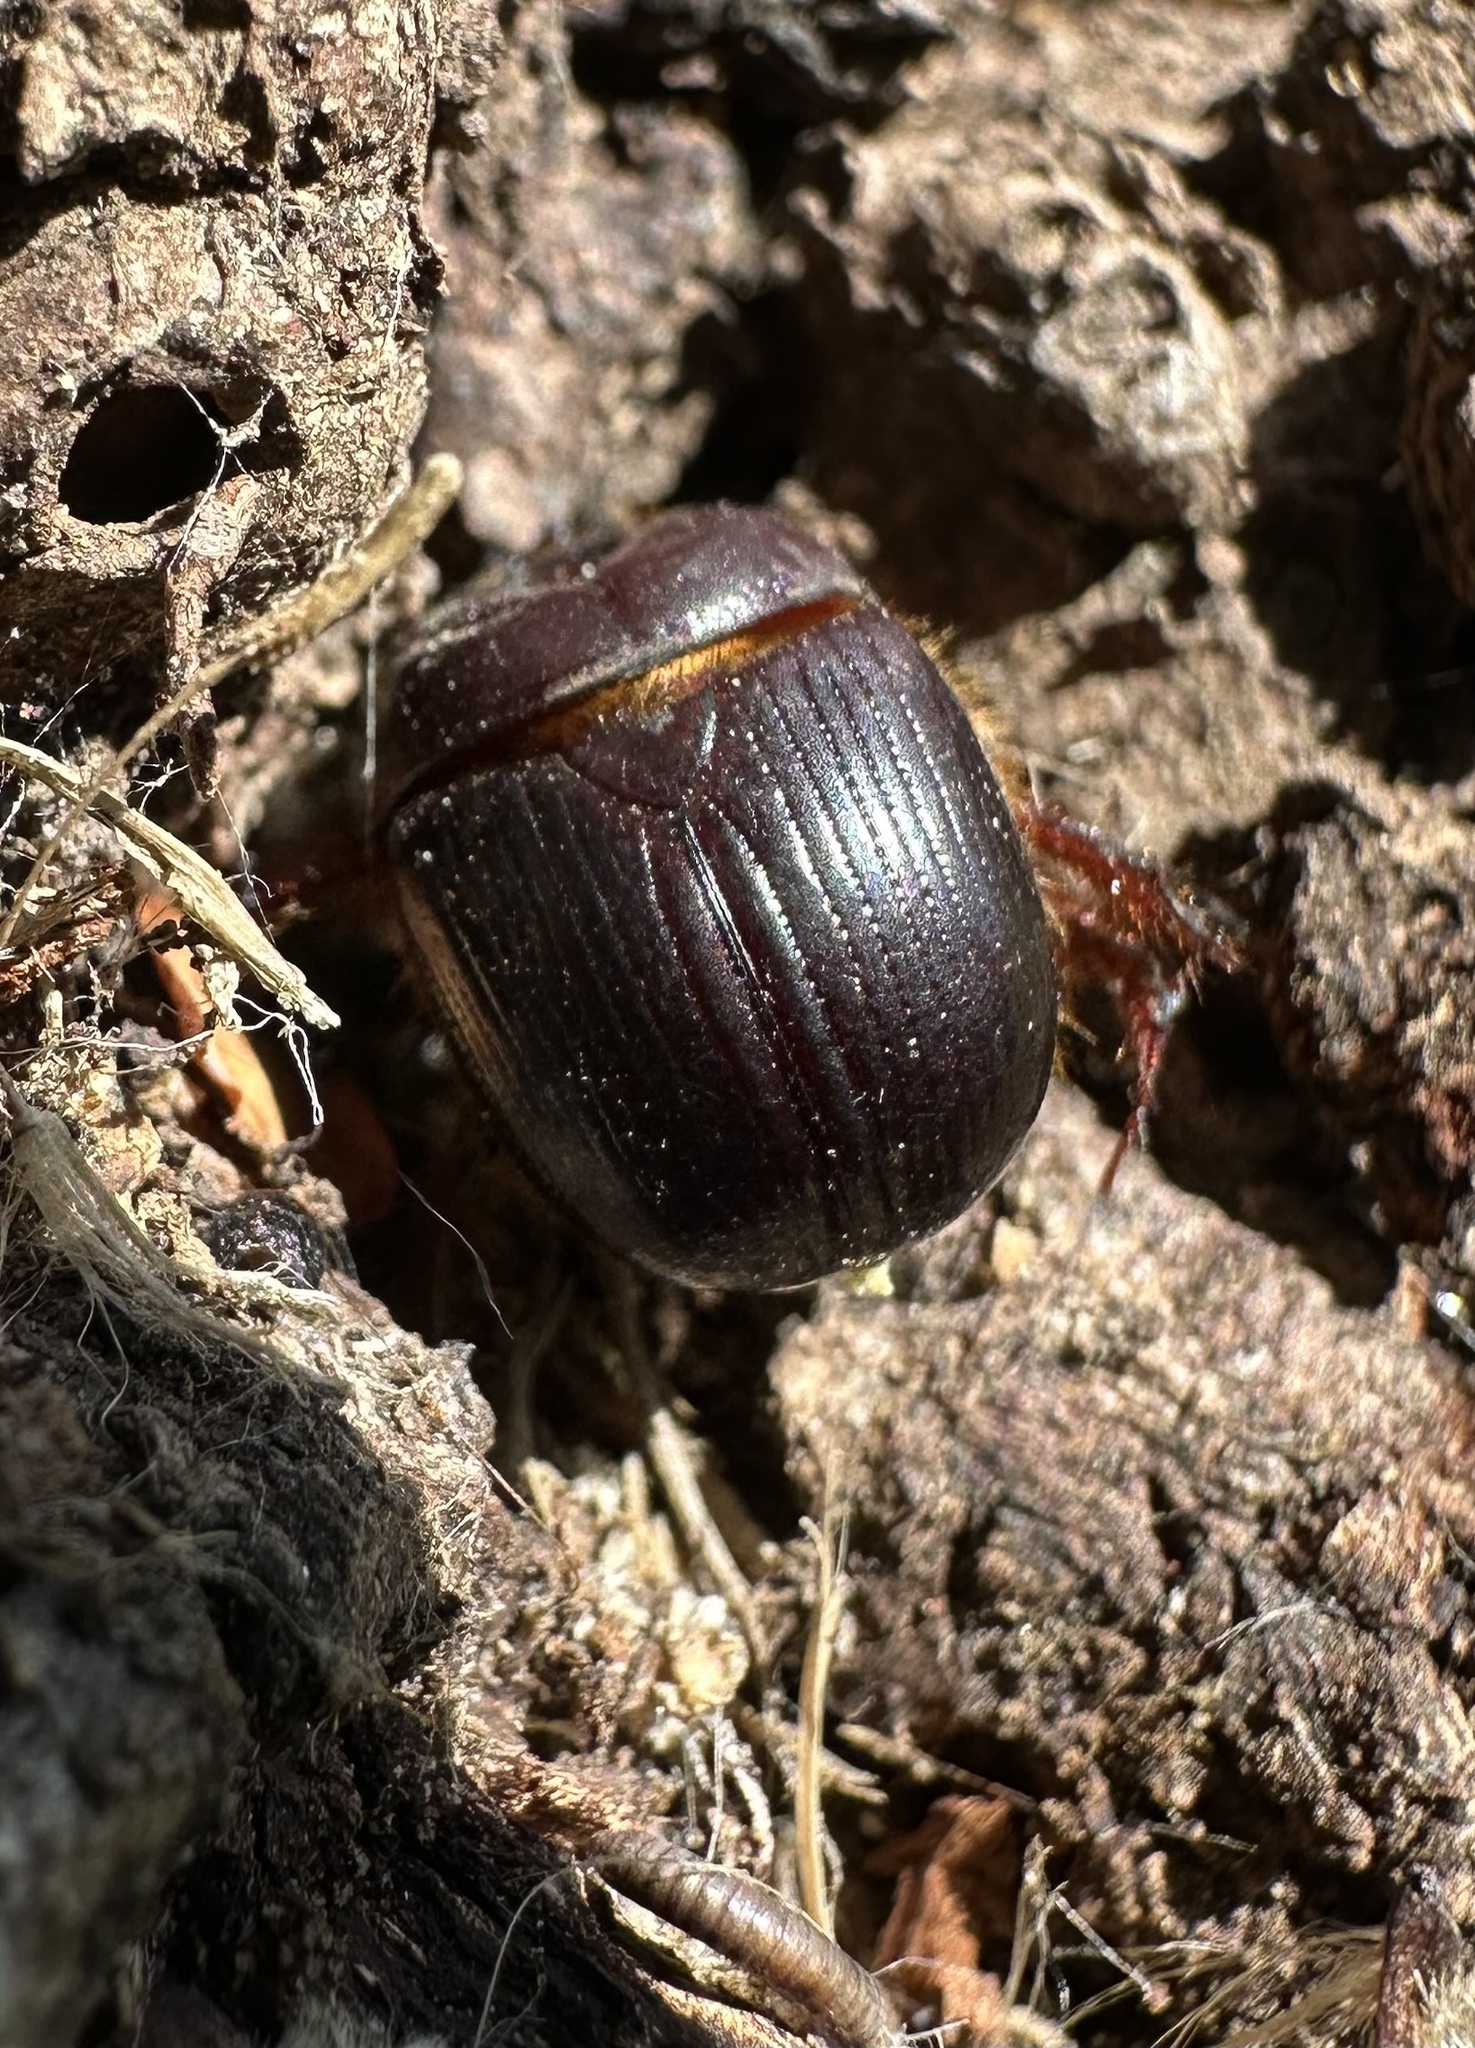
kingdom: Animalia
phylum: Arthropoda
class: Insecta
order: Coleoptera
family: Geotrupidae
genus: Bolborhinum
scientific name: Bolborhinum laesicolle
